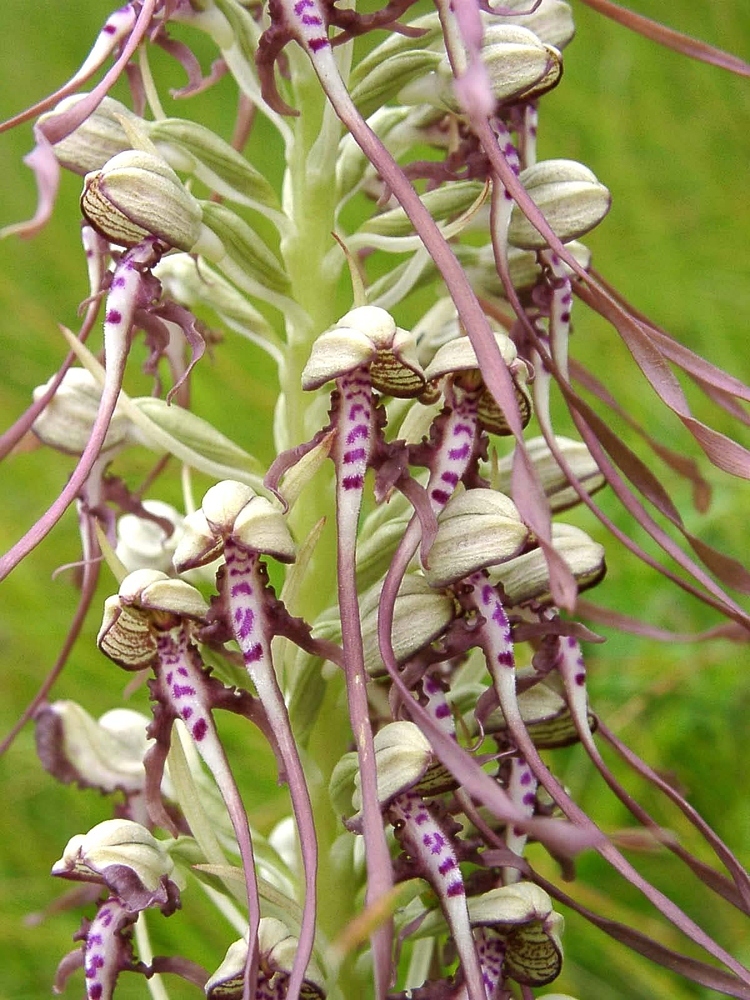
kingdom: Plantae
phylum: Tracheophyta
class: Liliopsida
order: Asparagales
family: Orchidaceae
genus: Himantoglossum
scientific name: Himantoglossum hircinum
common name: Lizard orchid
